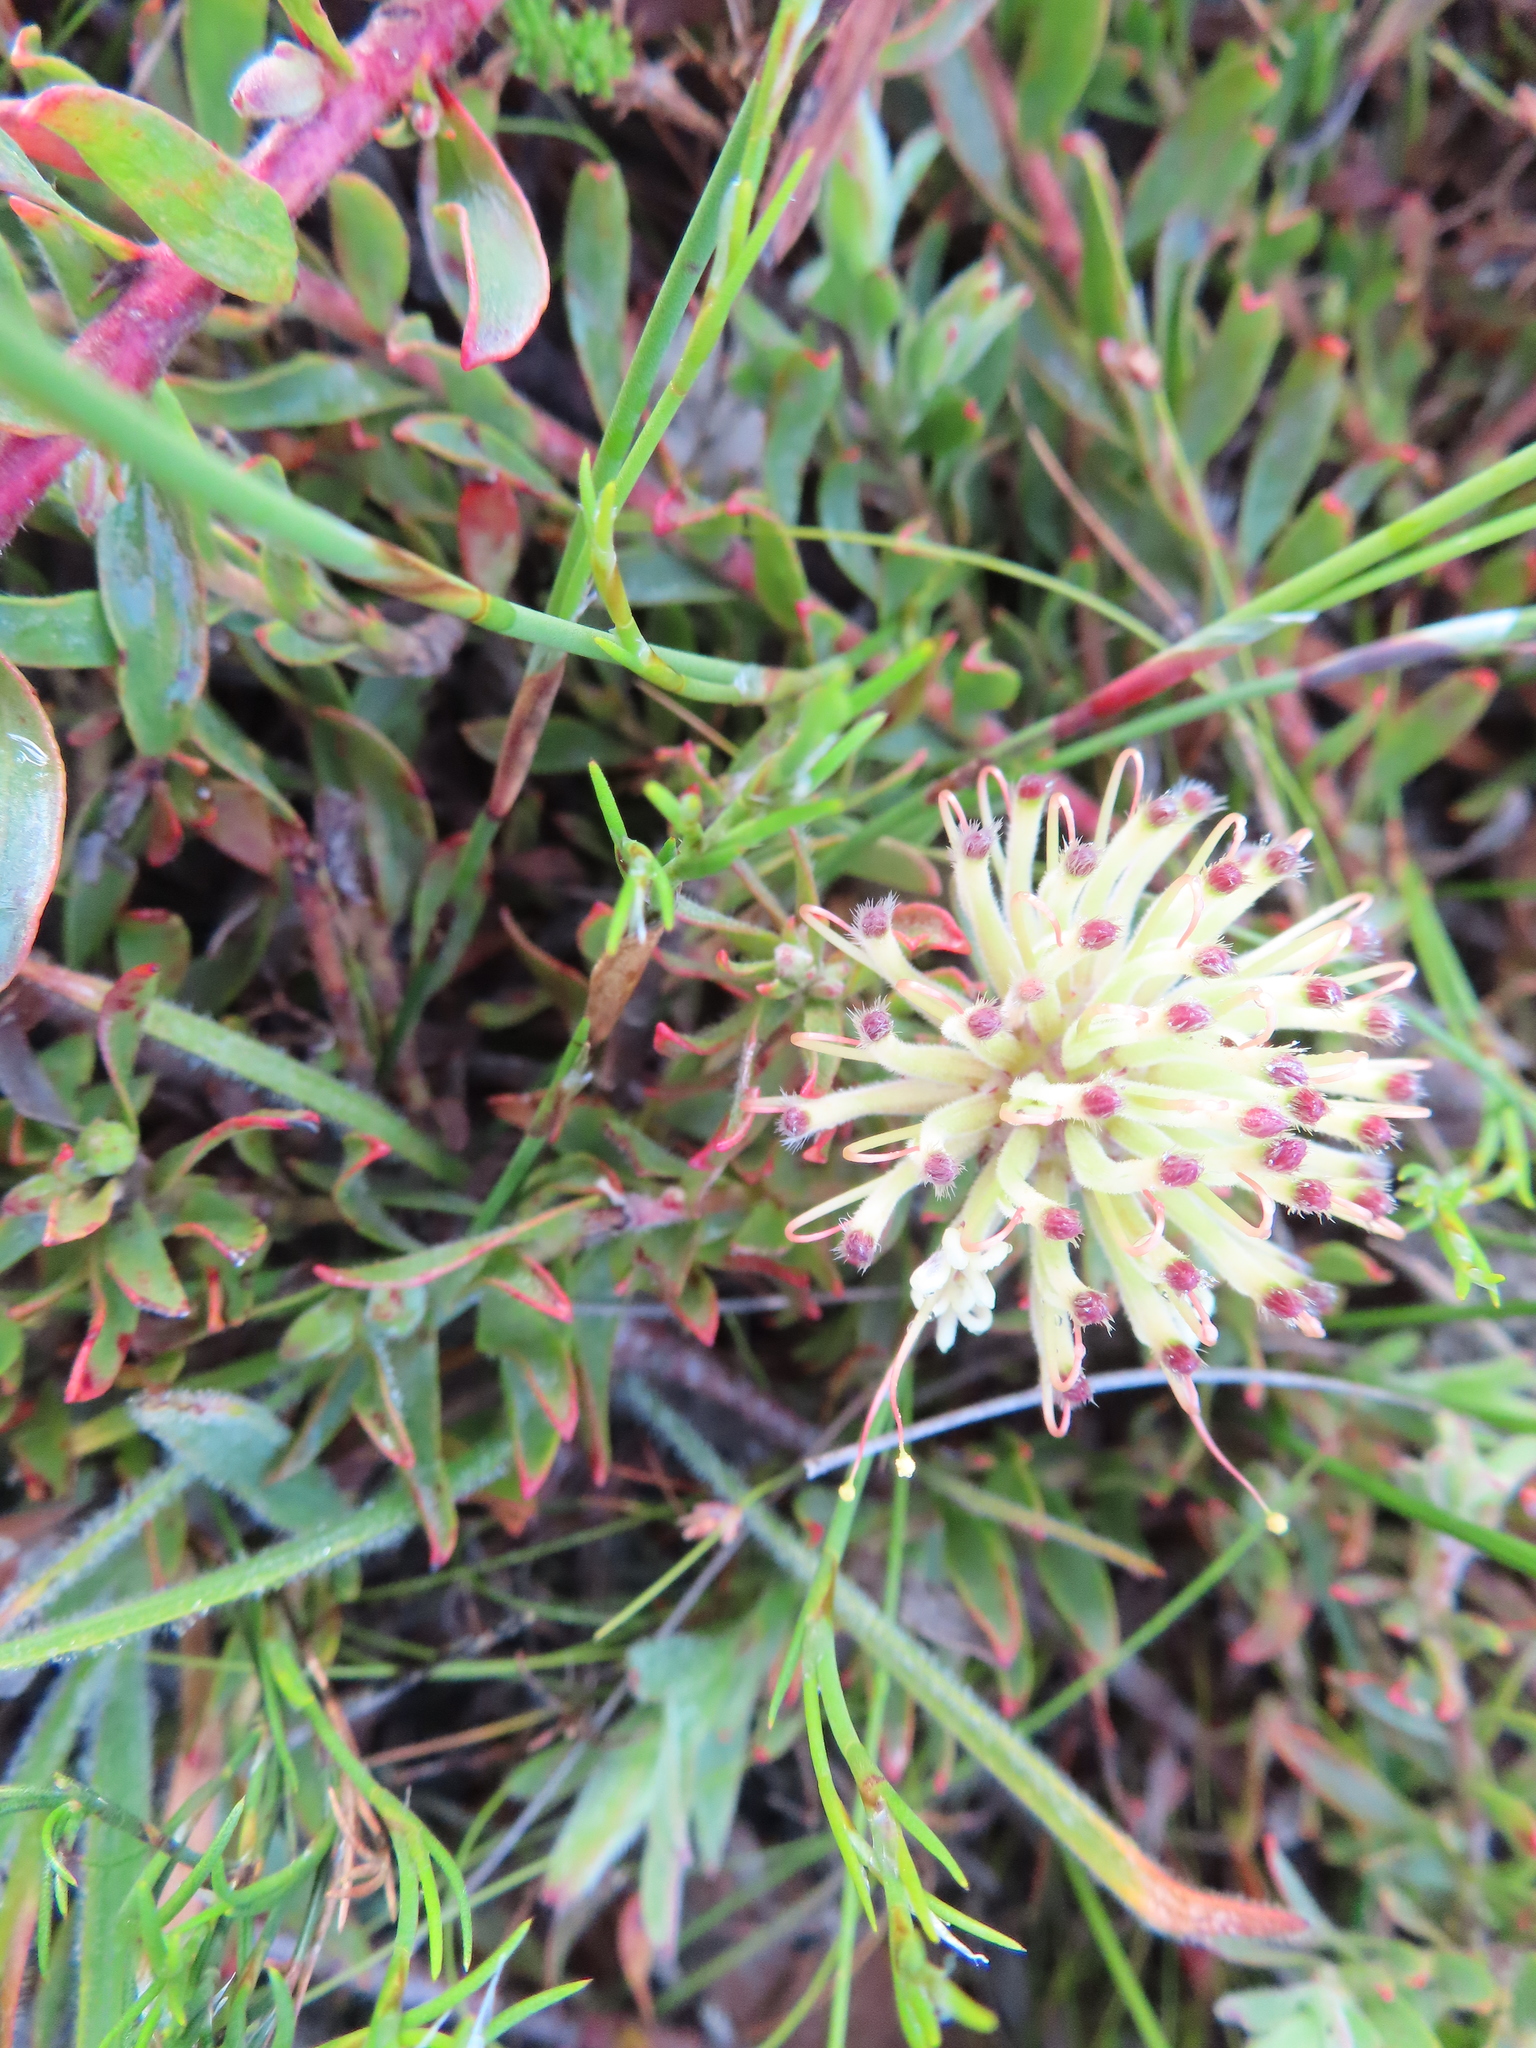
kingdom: Plantae
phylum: Tracheophyta
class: Magnoliopsida
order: Proteales
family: Proteaceae
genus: Leucospermum
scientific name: Leucospermum heterophyllum
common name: Trident pincushion
